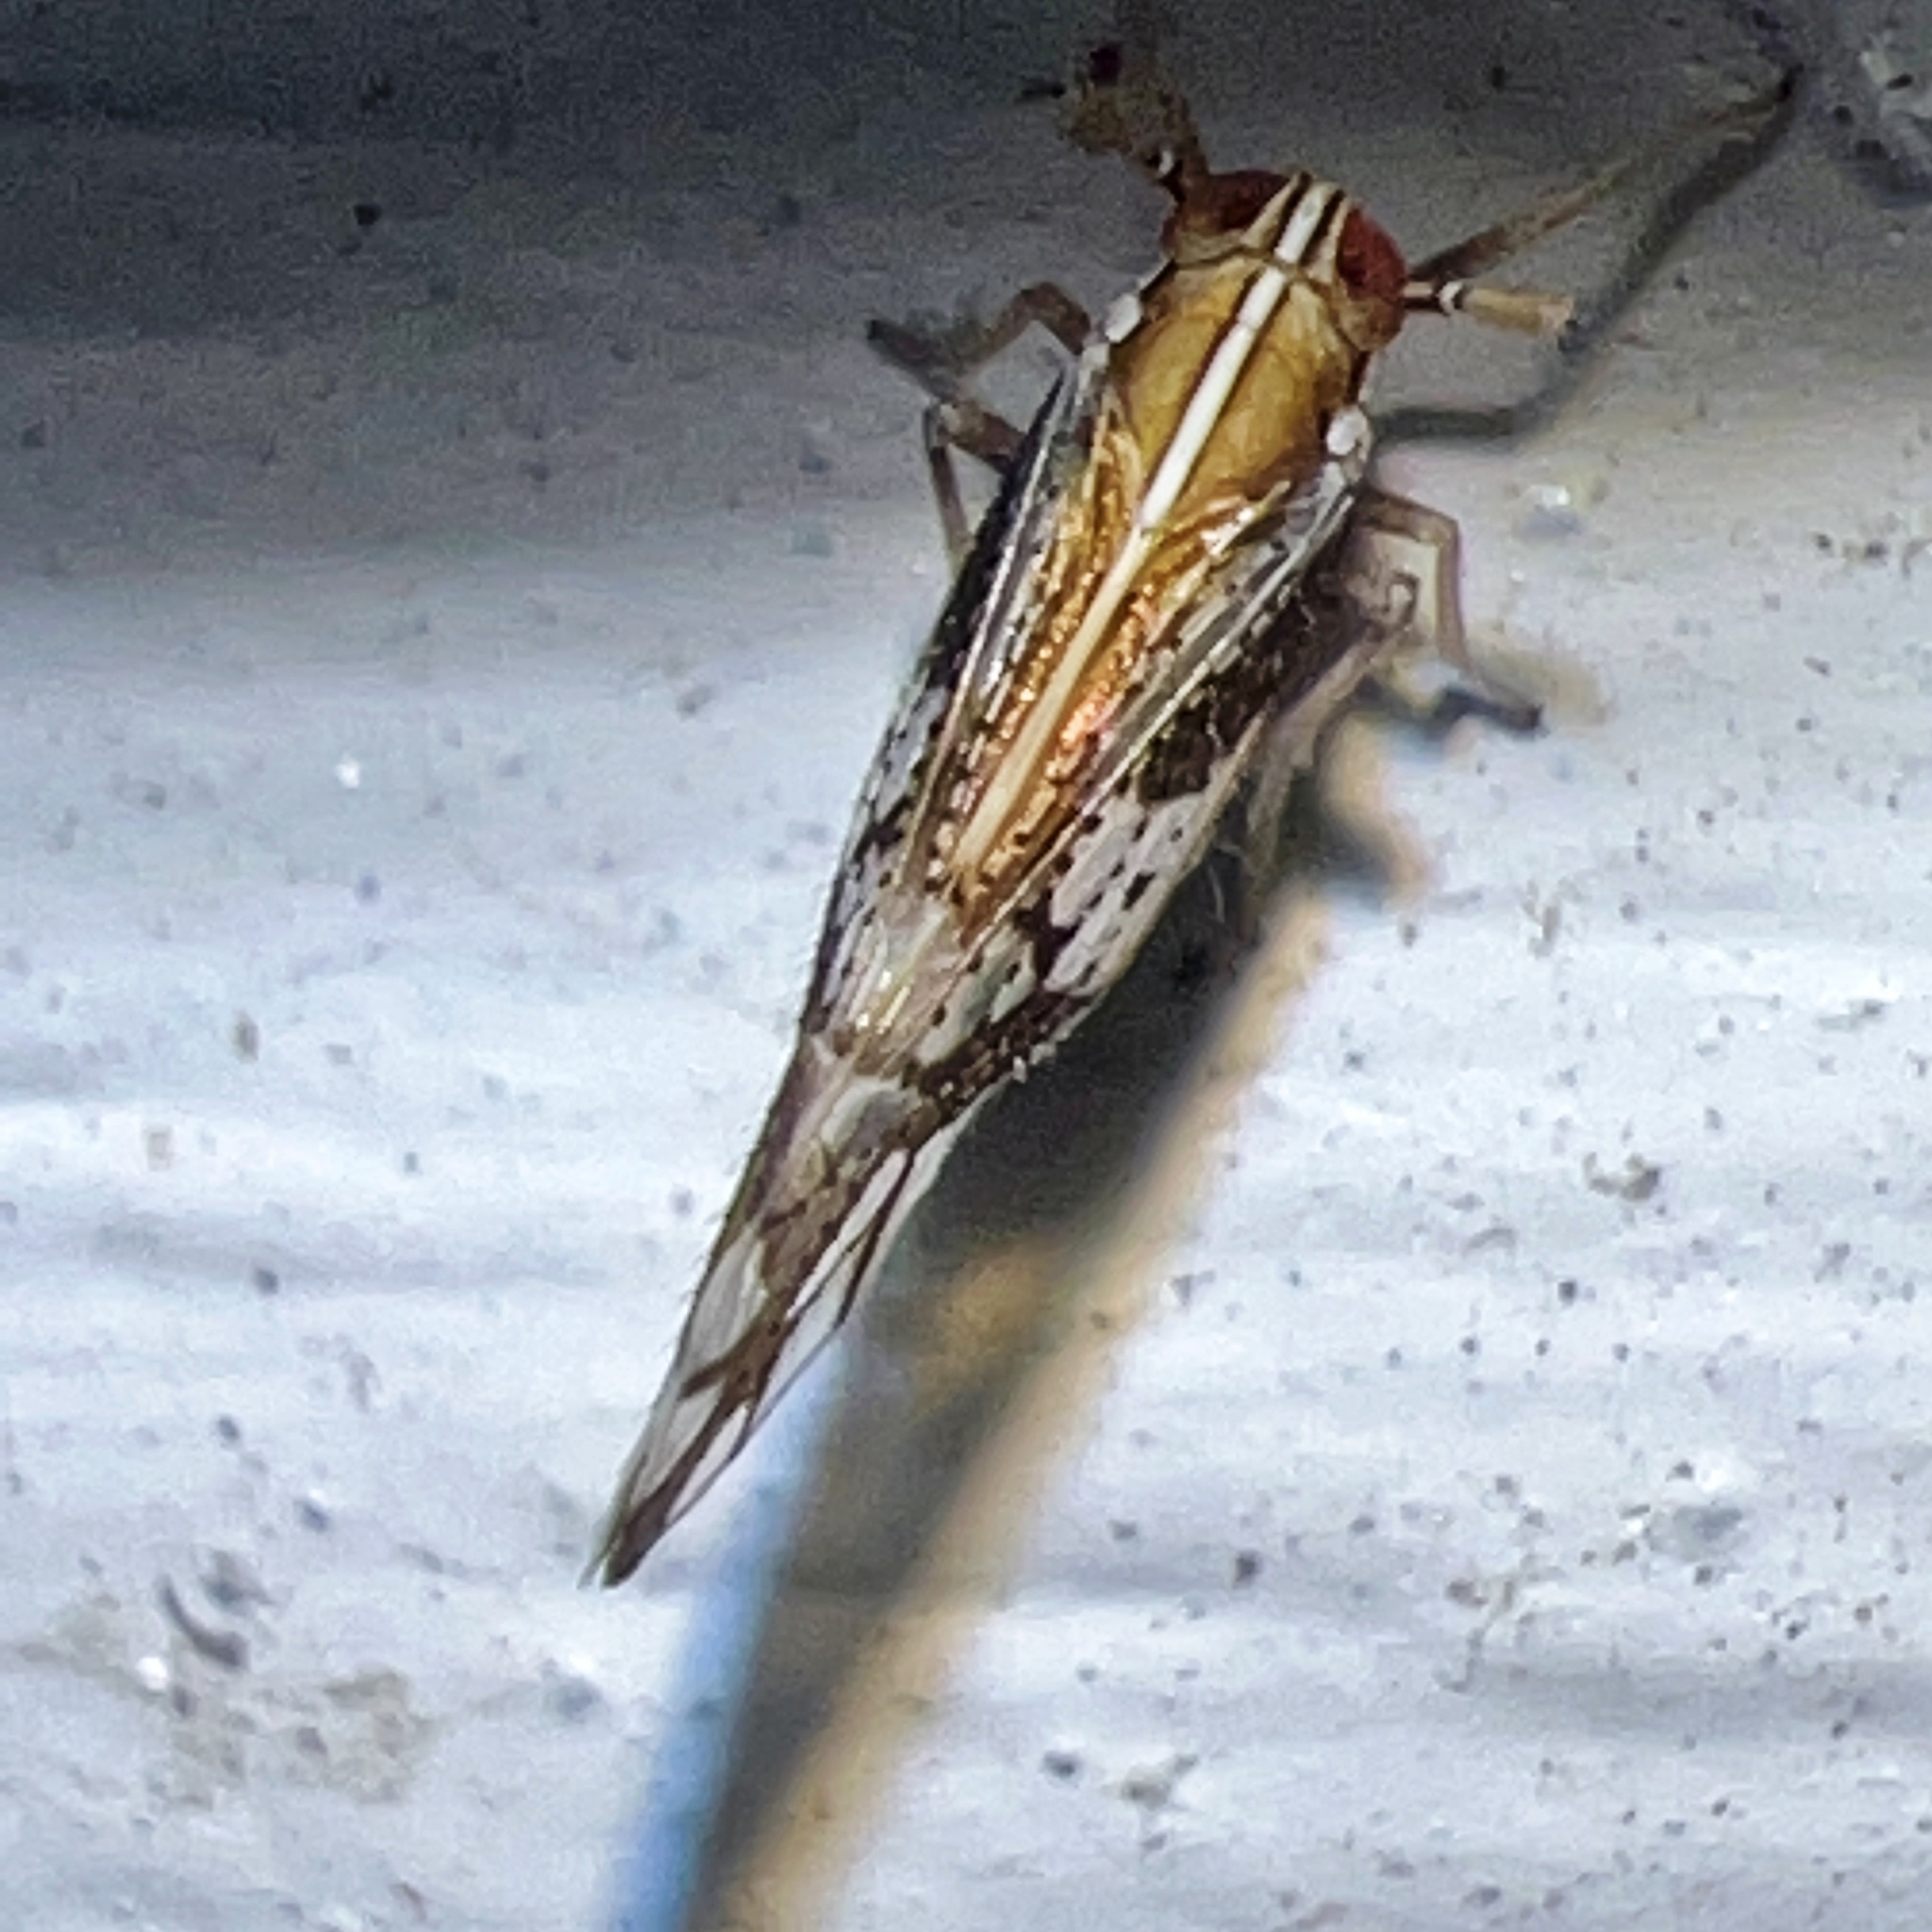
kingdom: Animalia
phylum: Arthropoda
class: Insecta
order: Hemiptera
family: Delphacidae
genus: Liburniella
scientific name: Liburniella ornata
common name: Ornate planthopper
